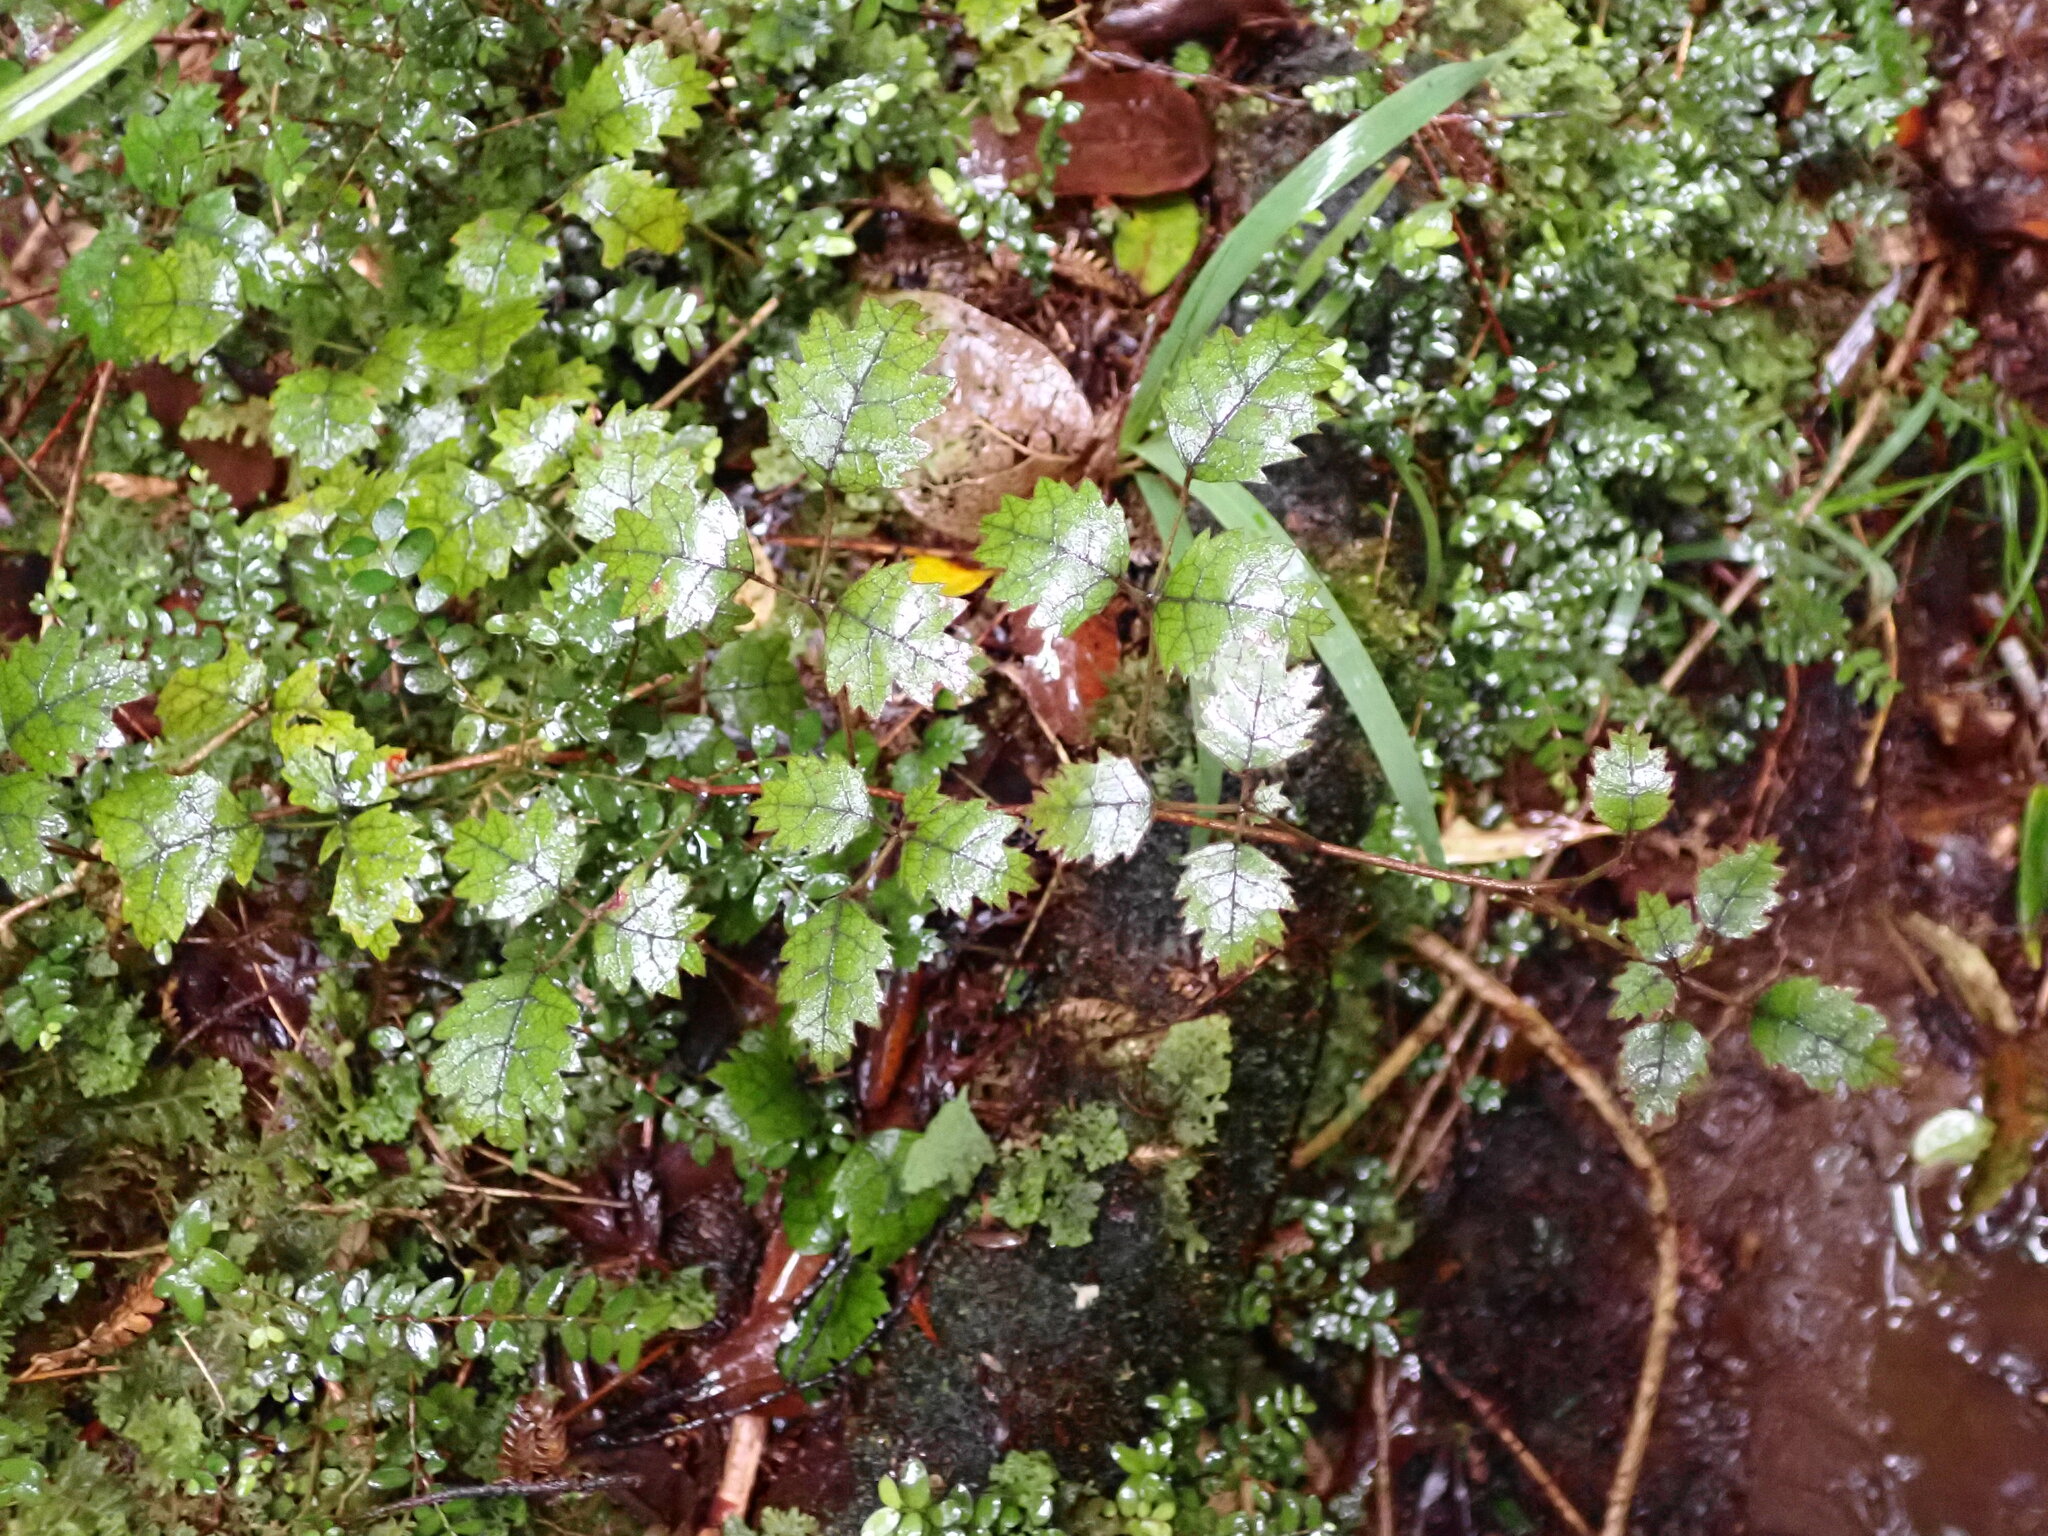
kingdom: Plantae
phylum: Tracheophyta
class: Magnoliopsida
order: Rosales
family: Rosaceae
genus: Rubus
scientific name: Rubus australis
